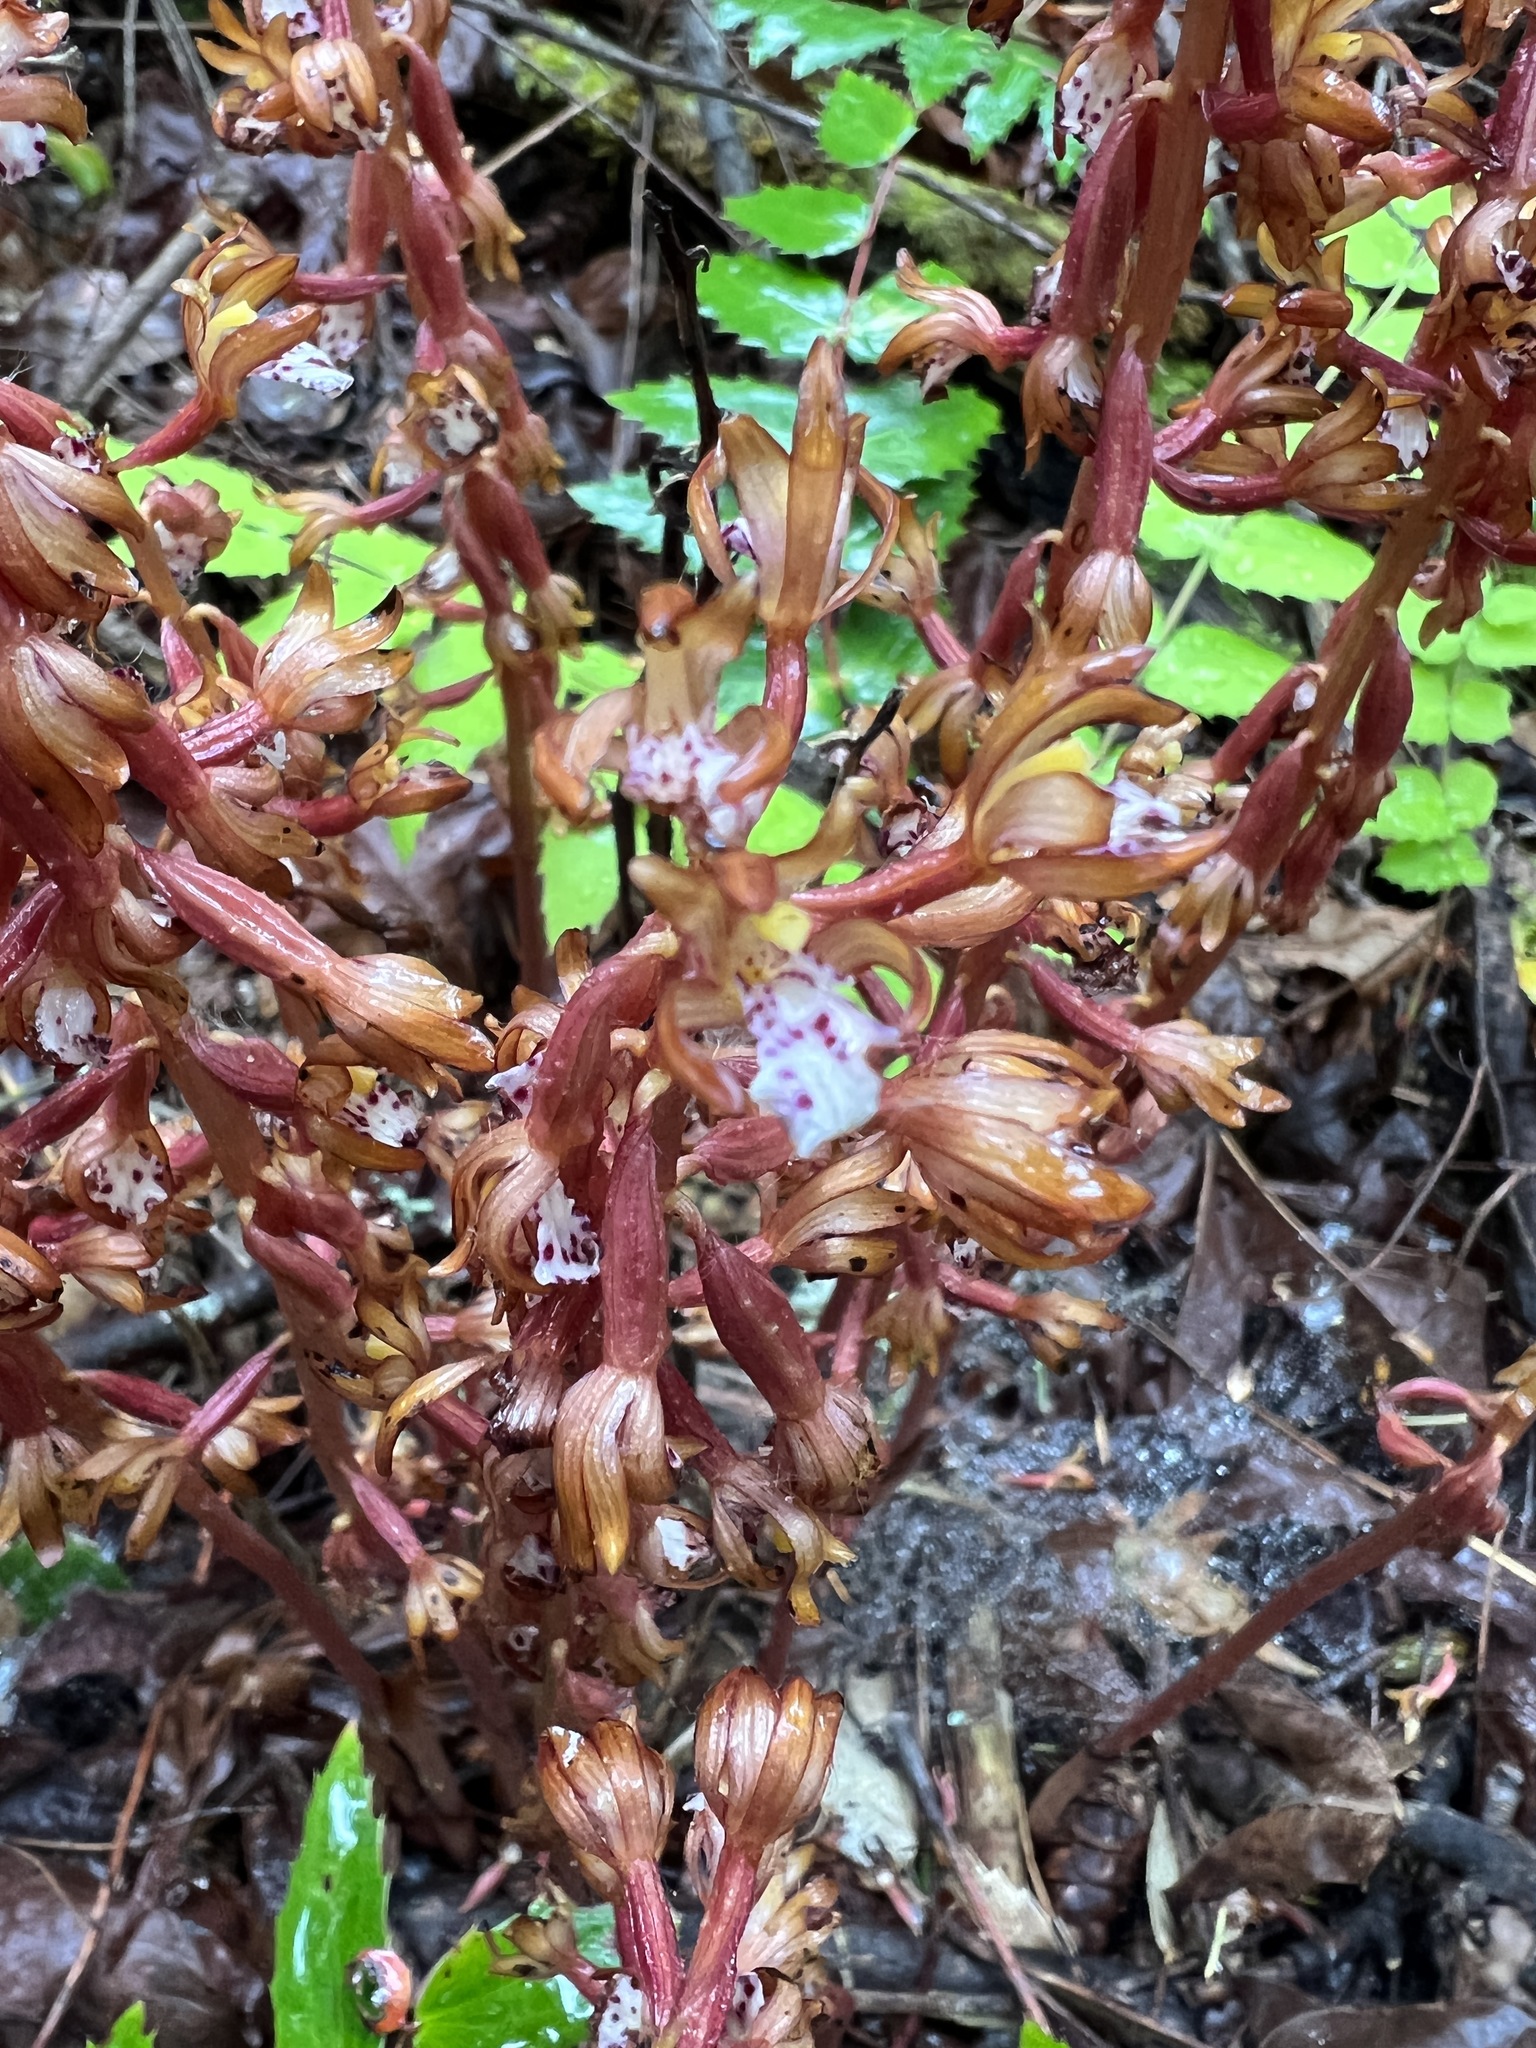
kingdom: Plantae
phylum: Tracheophyta
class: Liliopsida
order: Asparagales
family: Orchidaceae
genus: Corallorhiza
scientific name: Corallorhiza maculata
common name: Spotted coralroot
